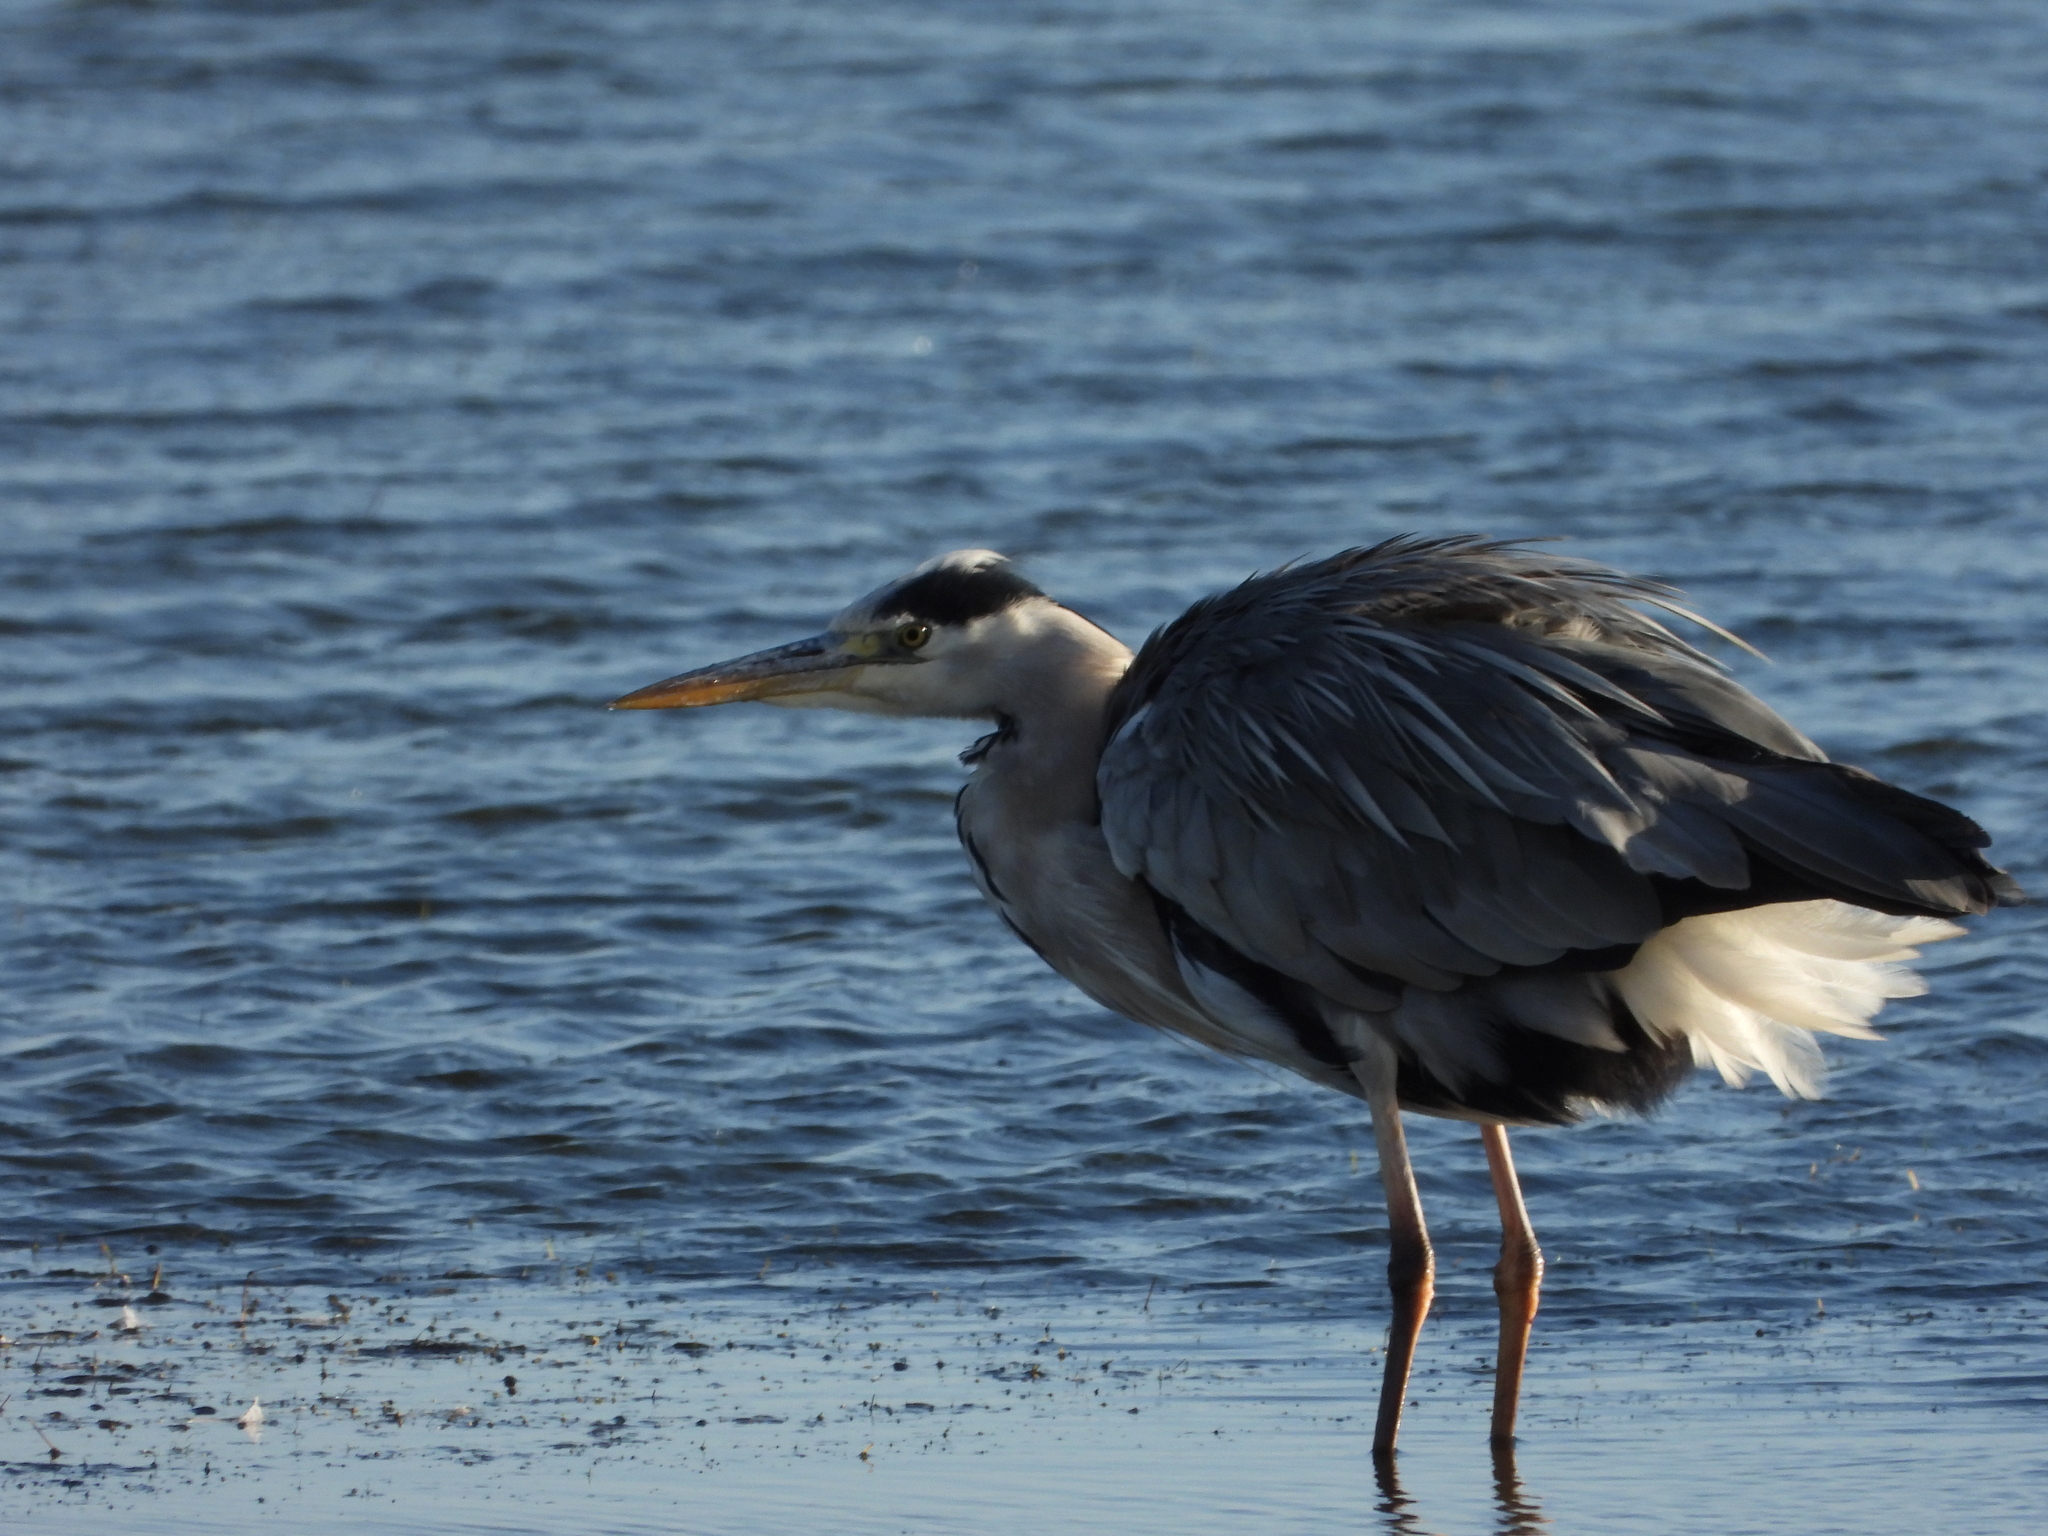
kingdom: Animalia
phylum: Chordata
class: Aves
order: Pelecaniformes
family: Ardeidae
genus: Ardea
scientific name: Ardea cinerea
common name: Grey heron
